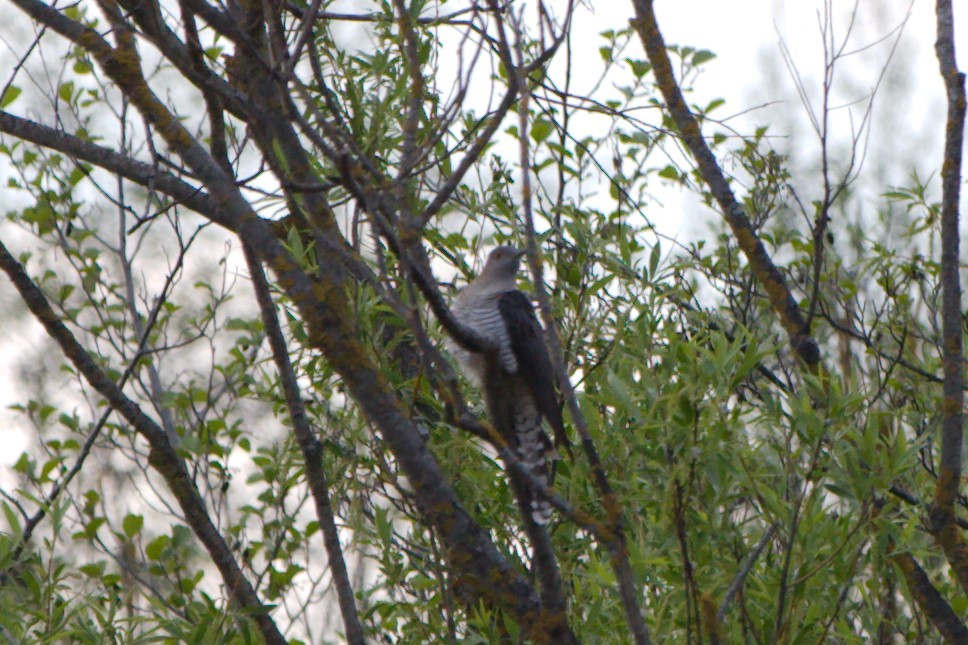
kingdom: Animalia
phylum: Chordata
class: Aves
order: Cuculiformes
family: Cuculidae
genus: Cuculus
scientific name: Cuculus canorus
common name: Common cuckoo
